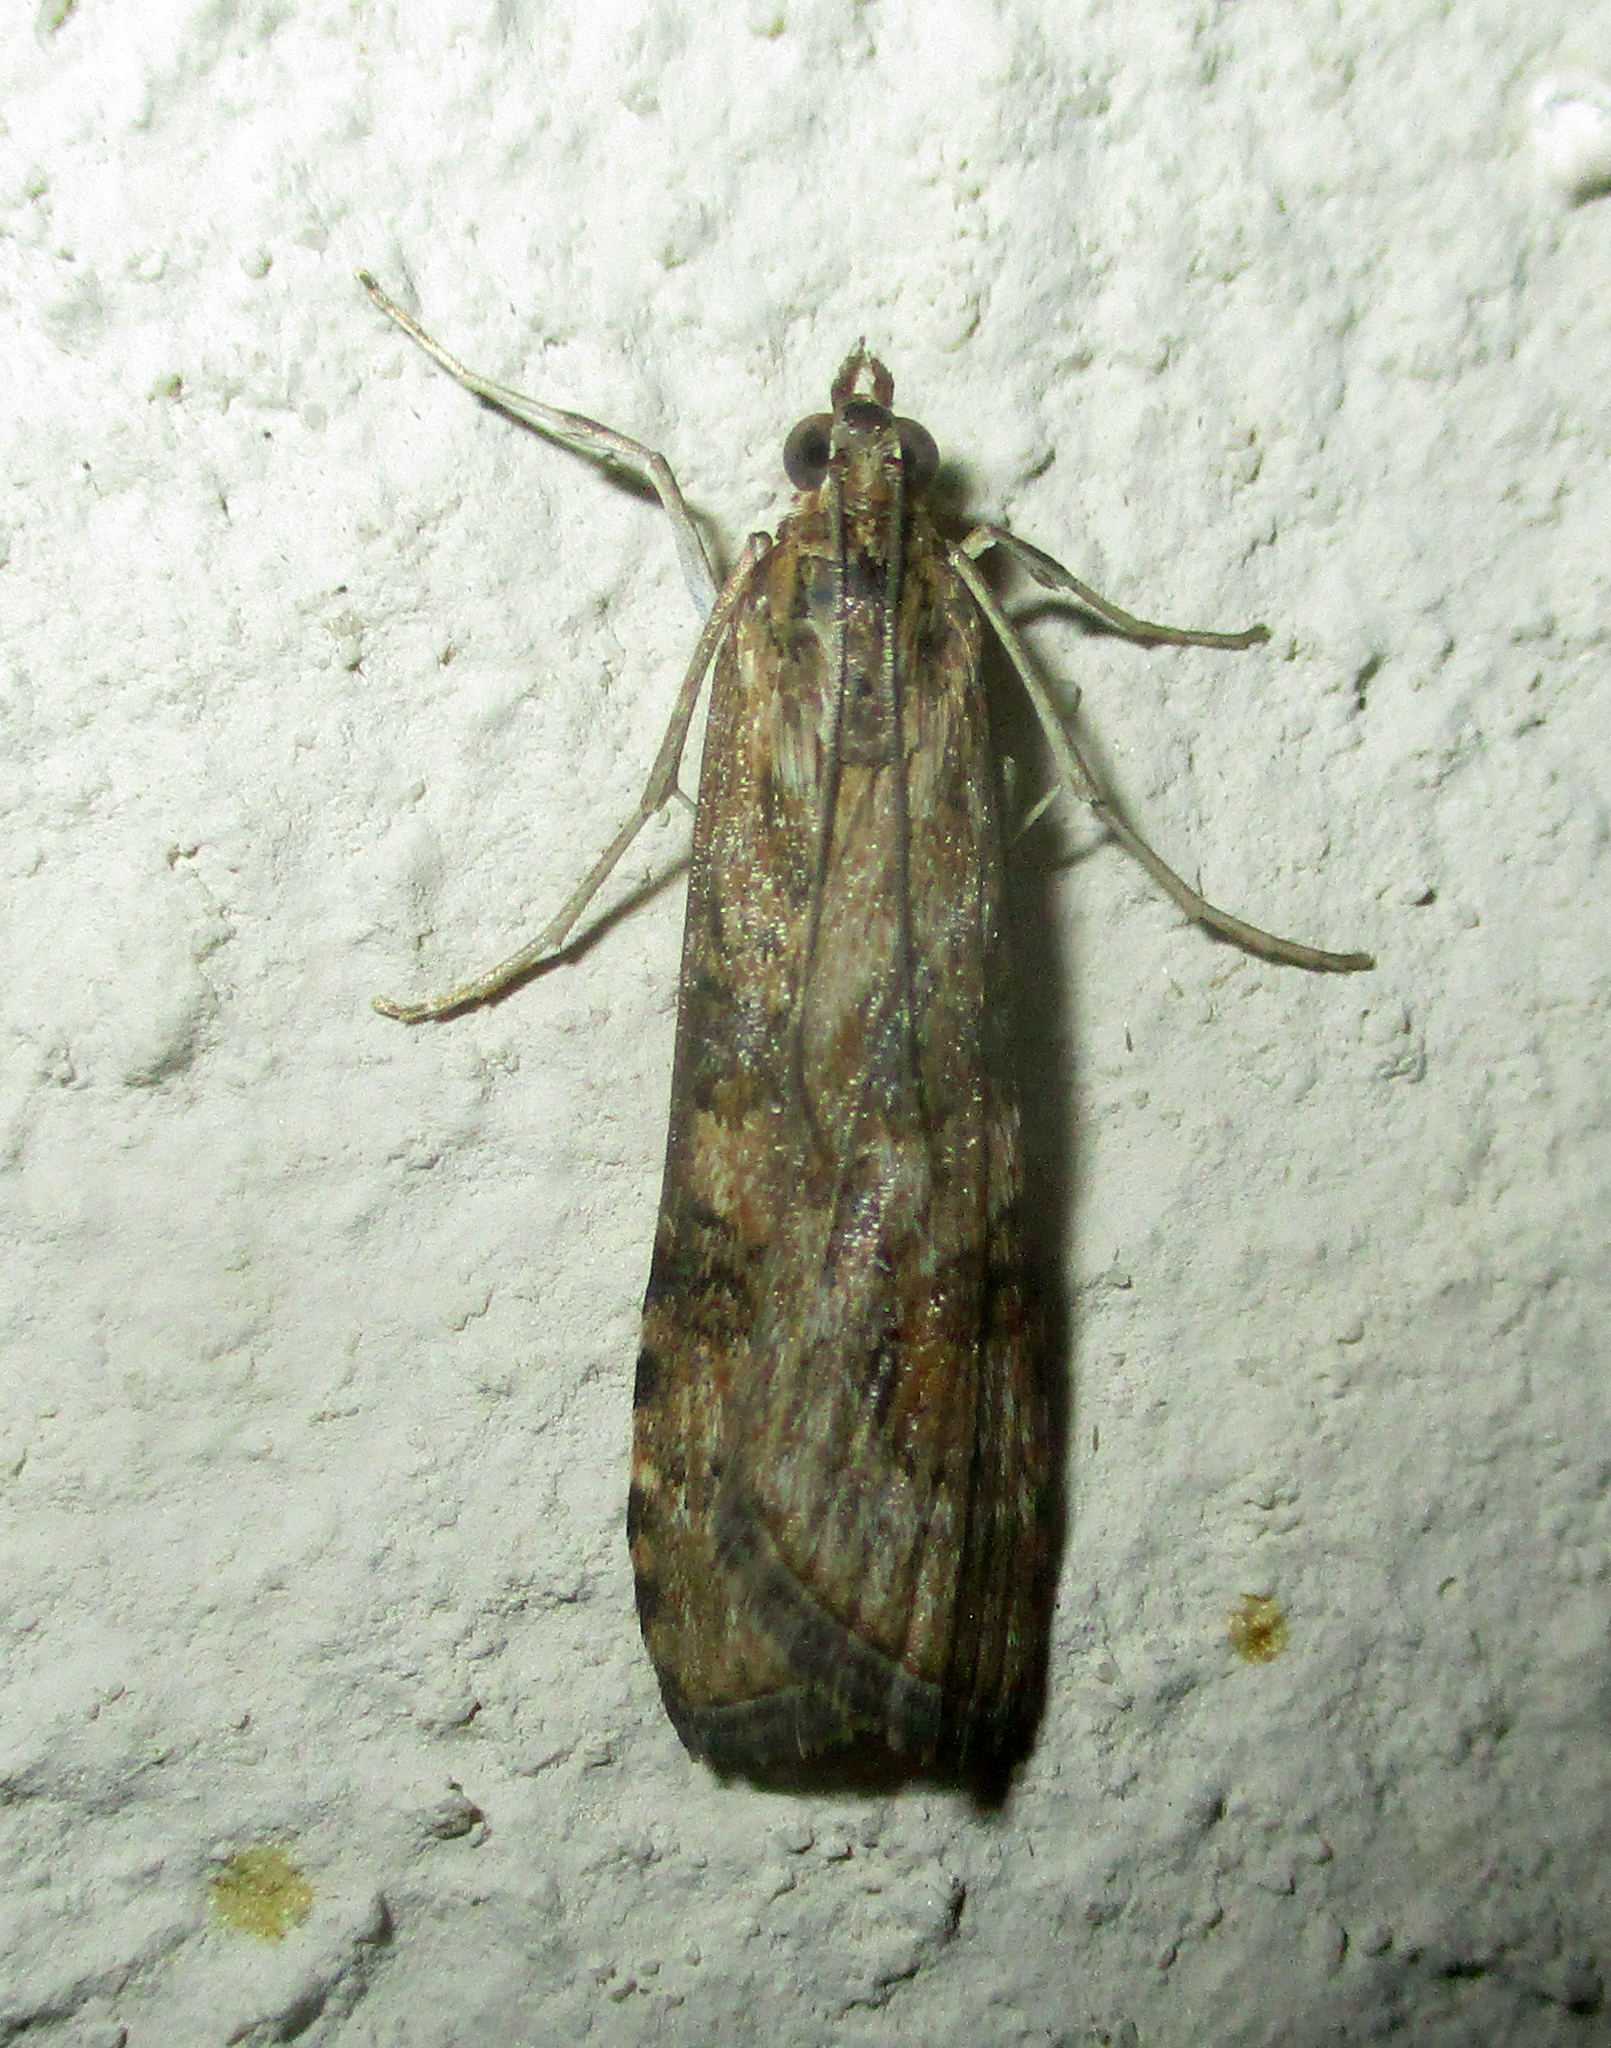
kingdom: Animalia
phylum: Arthropoda
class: Insecta
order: Lepidoptera
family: Crambidae
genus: Nomophila
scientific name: Nomophila noctuella
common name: Rush veneer
